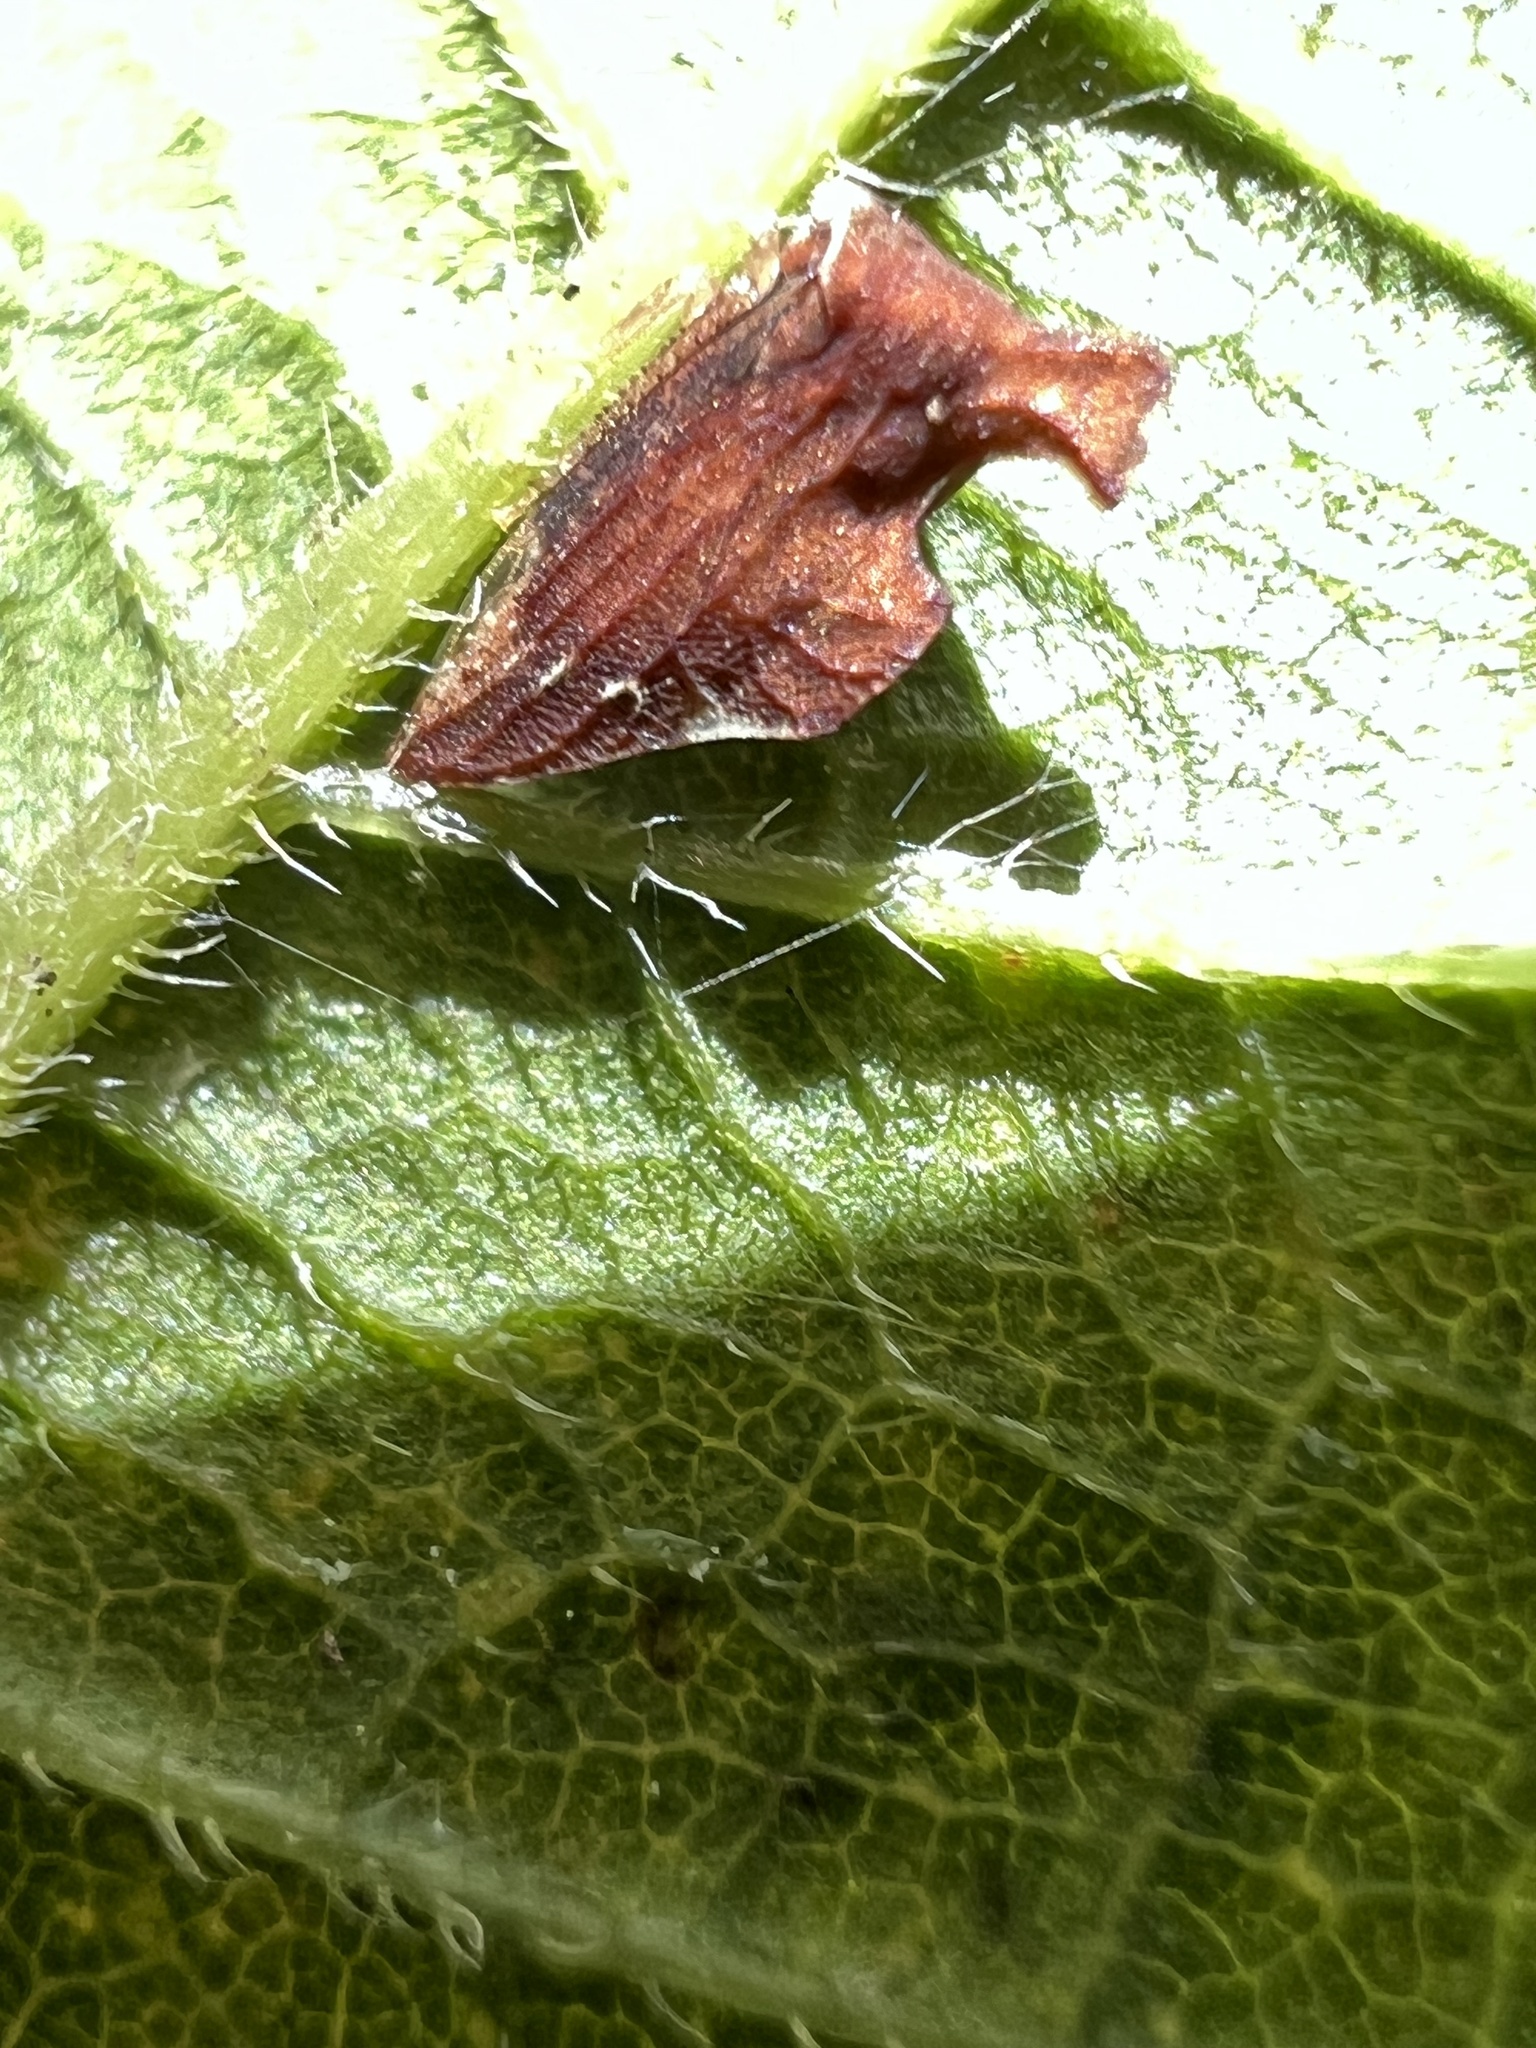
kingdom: Animalia
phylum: Arthropoda
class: Insecta
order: Hemiptera
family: Membracidae
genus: Entylia
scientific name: Entylia carinata
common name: Keeled treehopper
